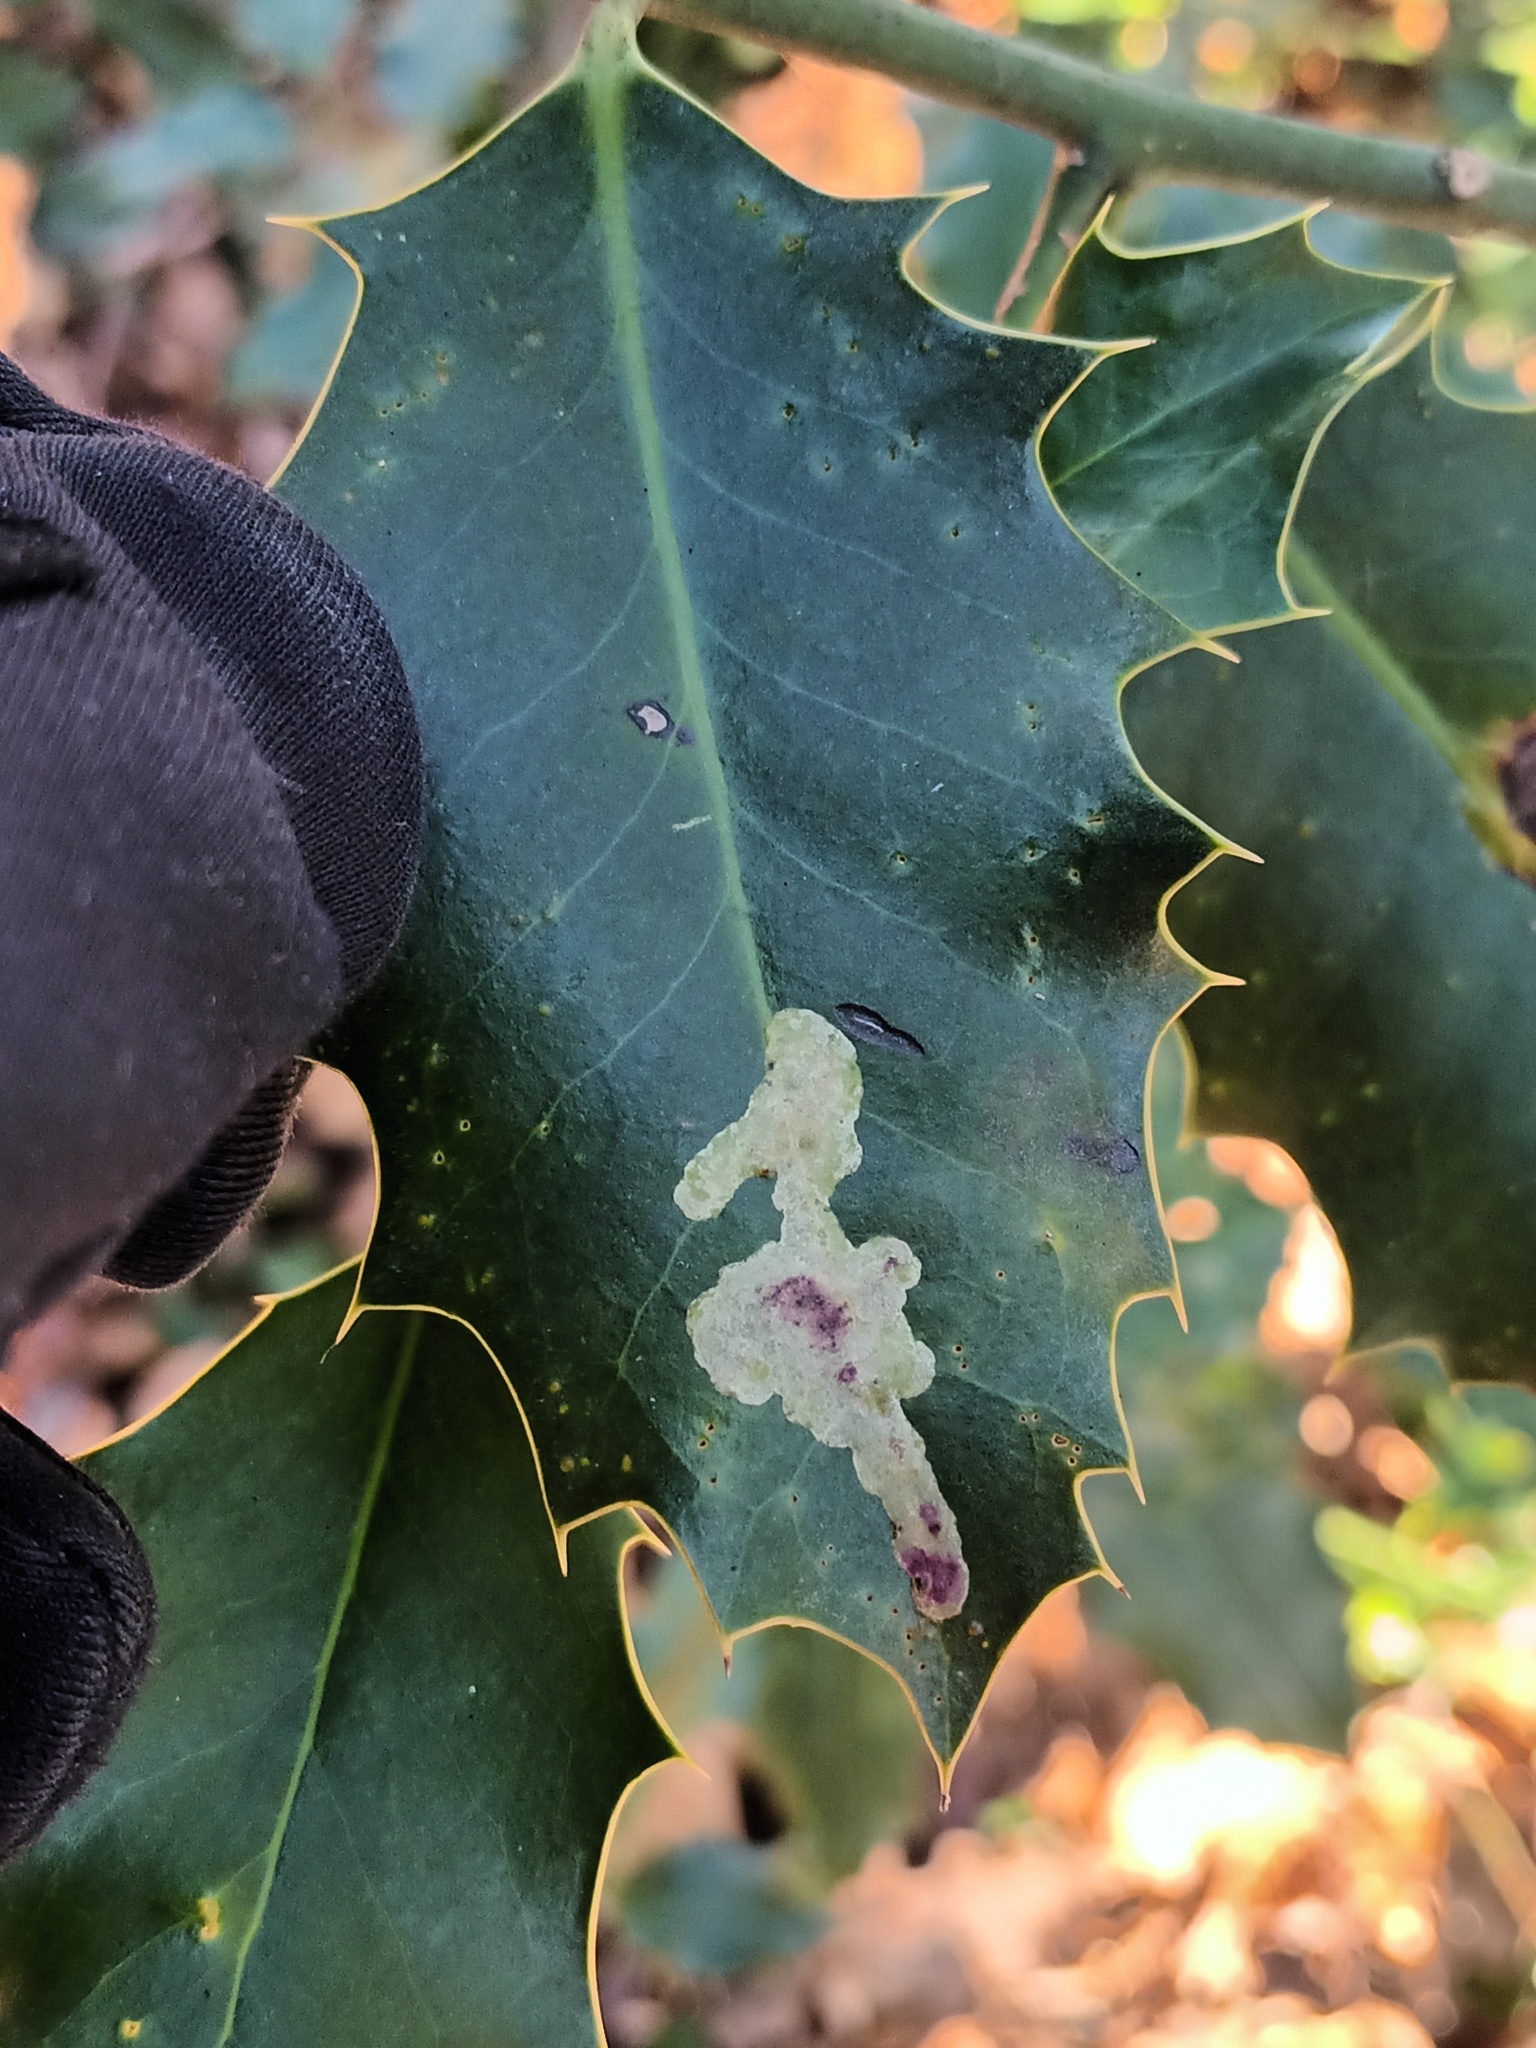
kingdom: Animalia
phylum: Arthropoda
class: Insecta
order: Diptera
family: Agromyzidae
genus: Phytomyza
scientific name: Phytomyza ilicis
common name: Holly leafminer
